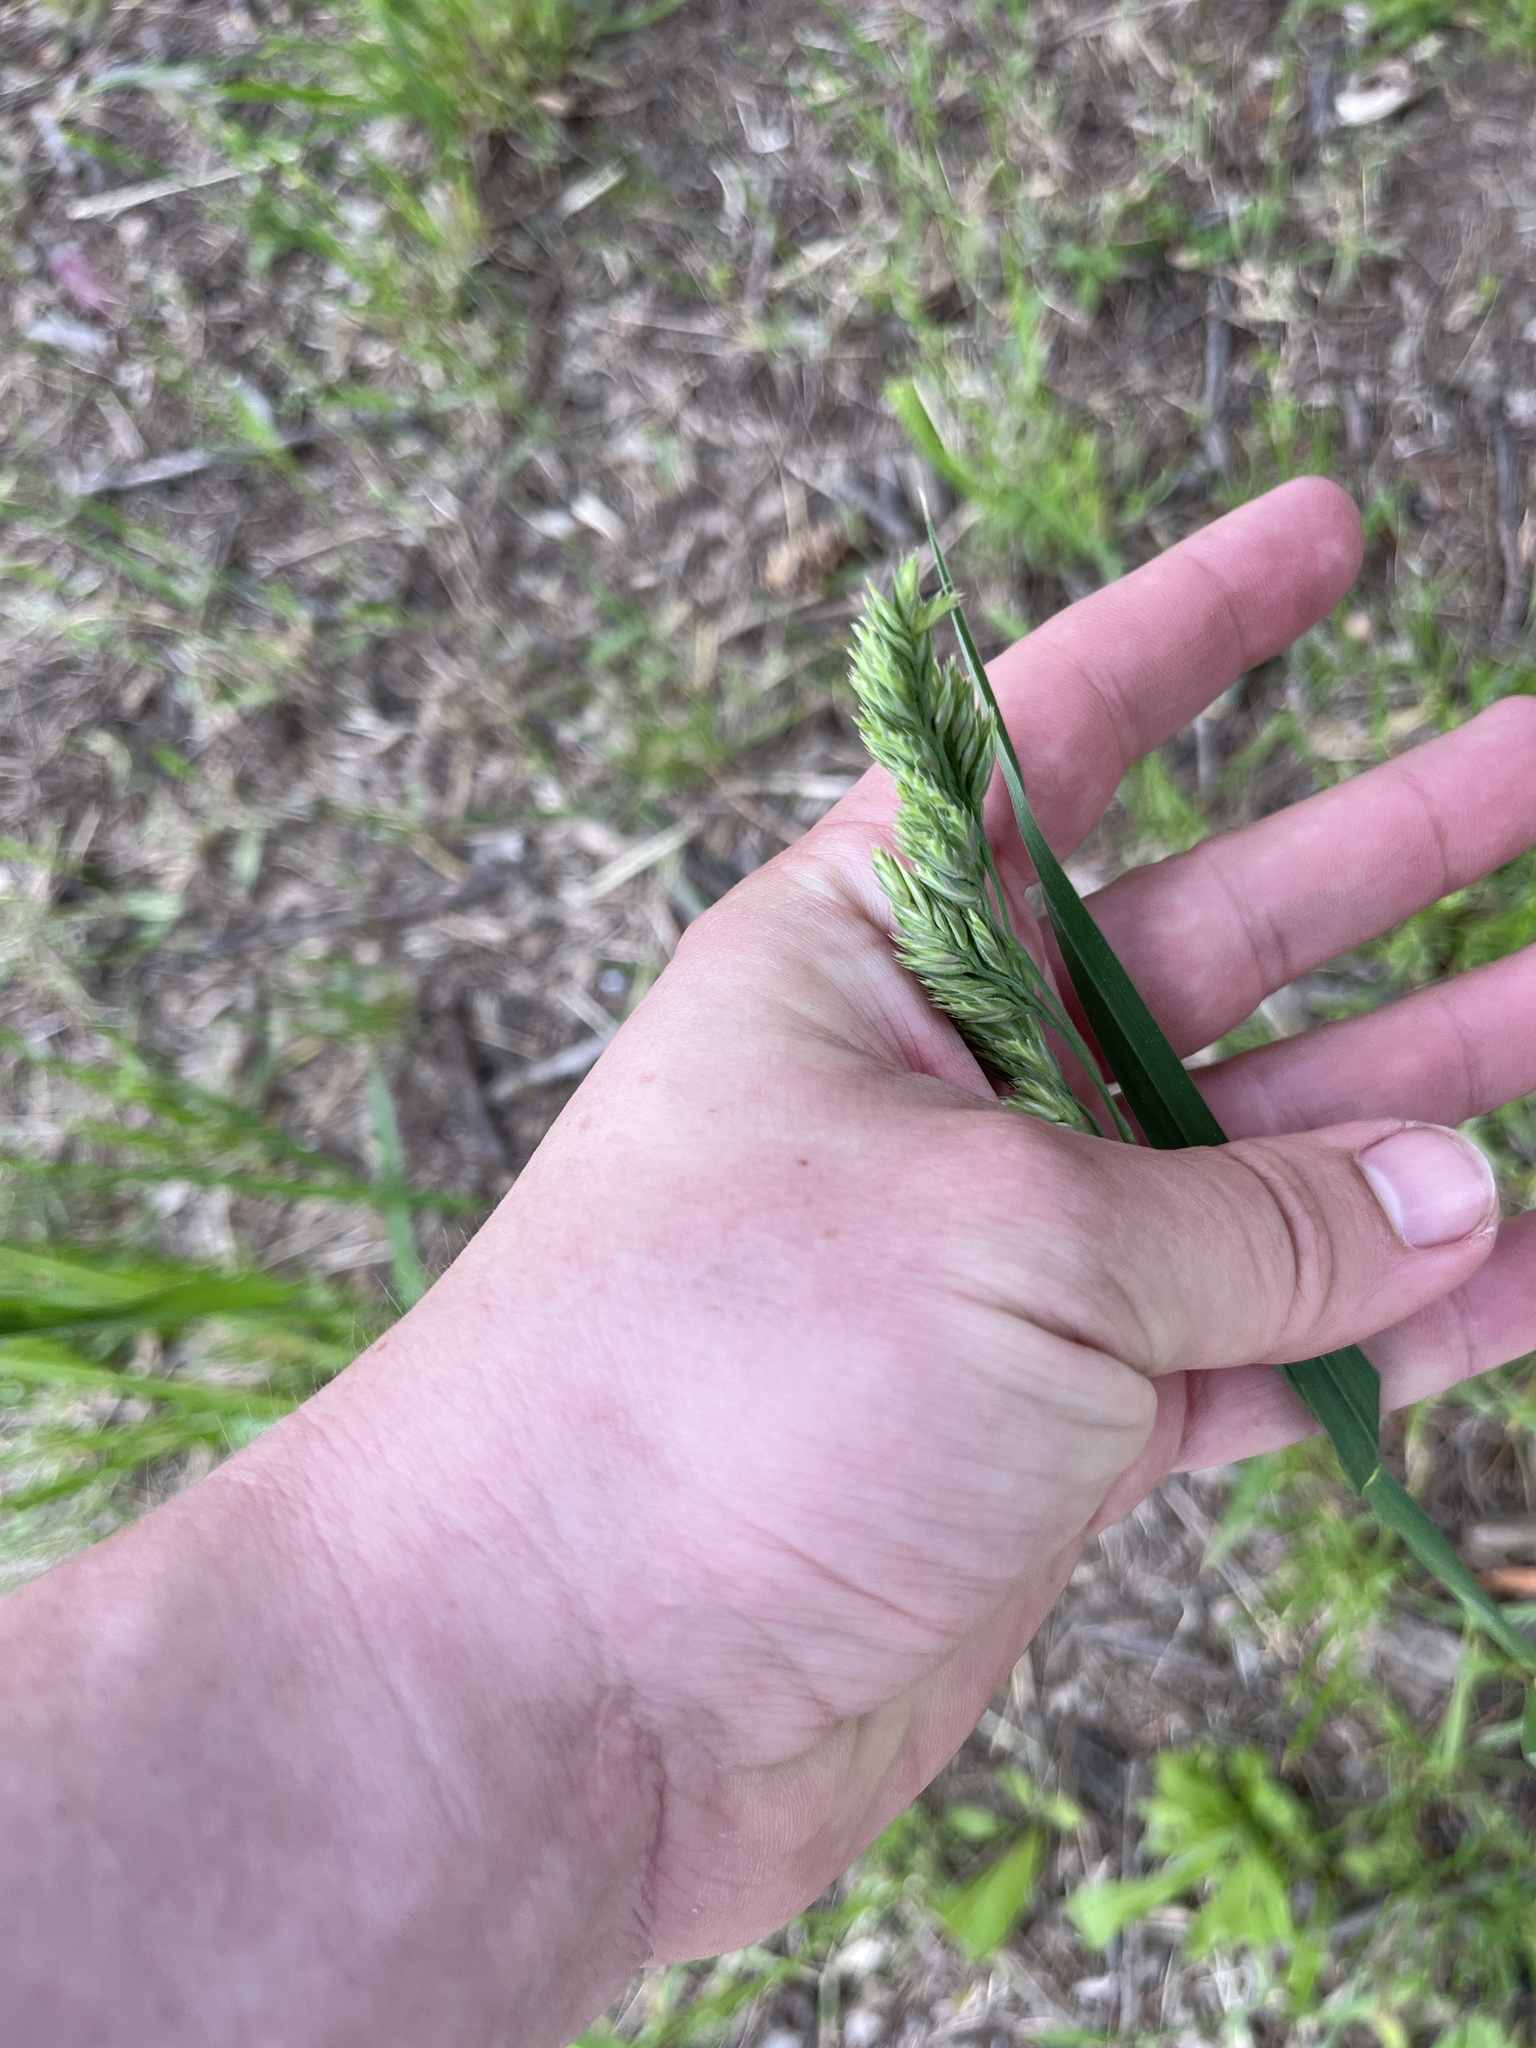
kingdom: Plantae
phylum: Tracheophyta
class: Liliopsida
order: Poales
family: Poaceae
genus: Dactylis
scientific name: Dactylis glomerata
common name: Orchardgrass
